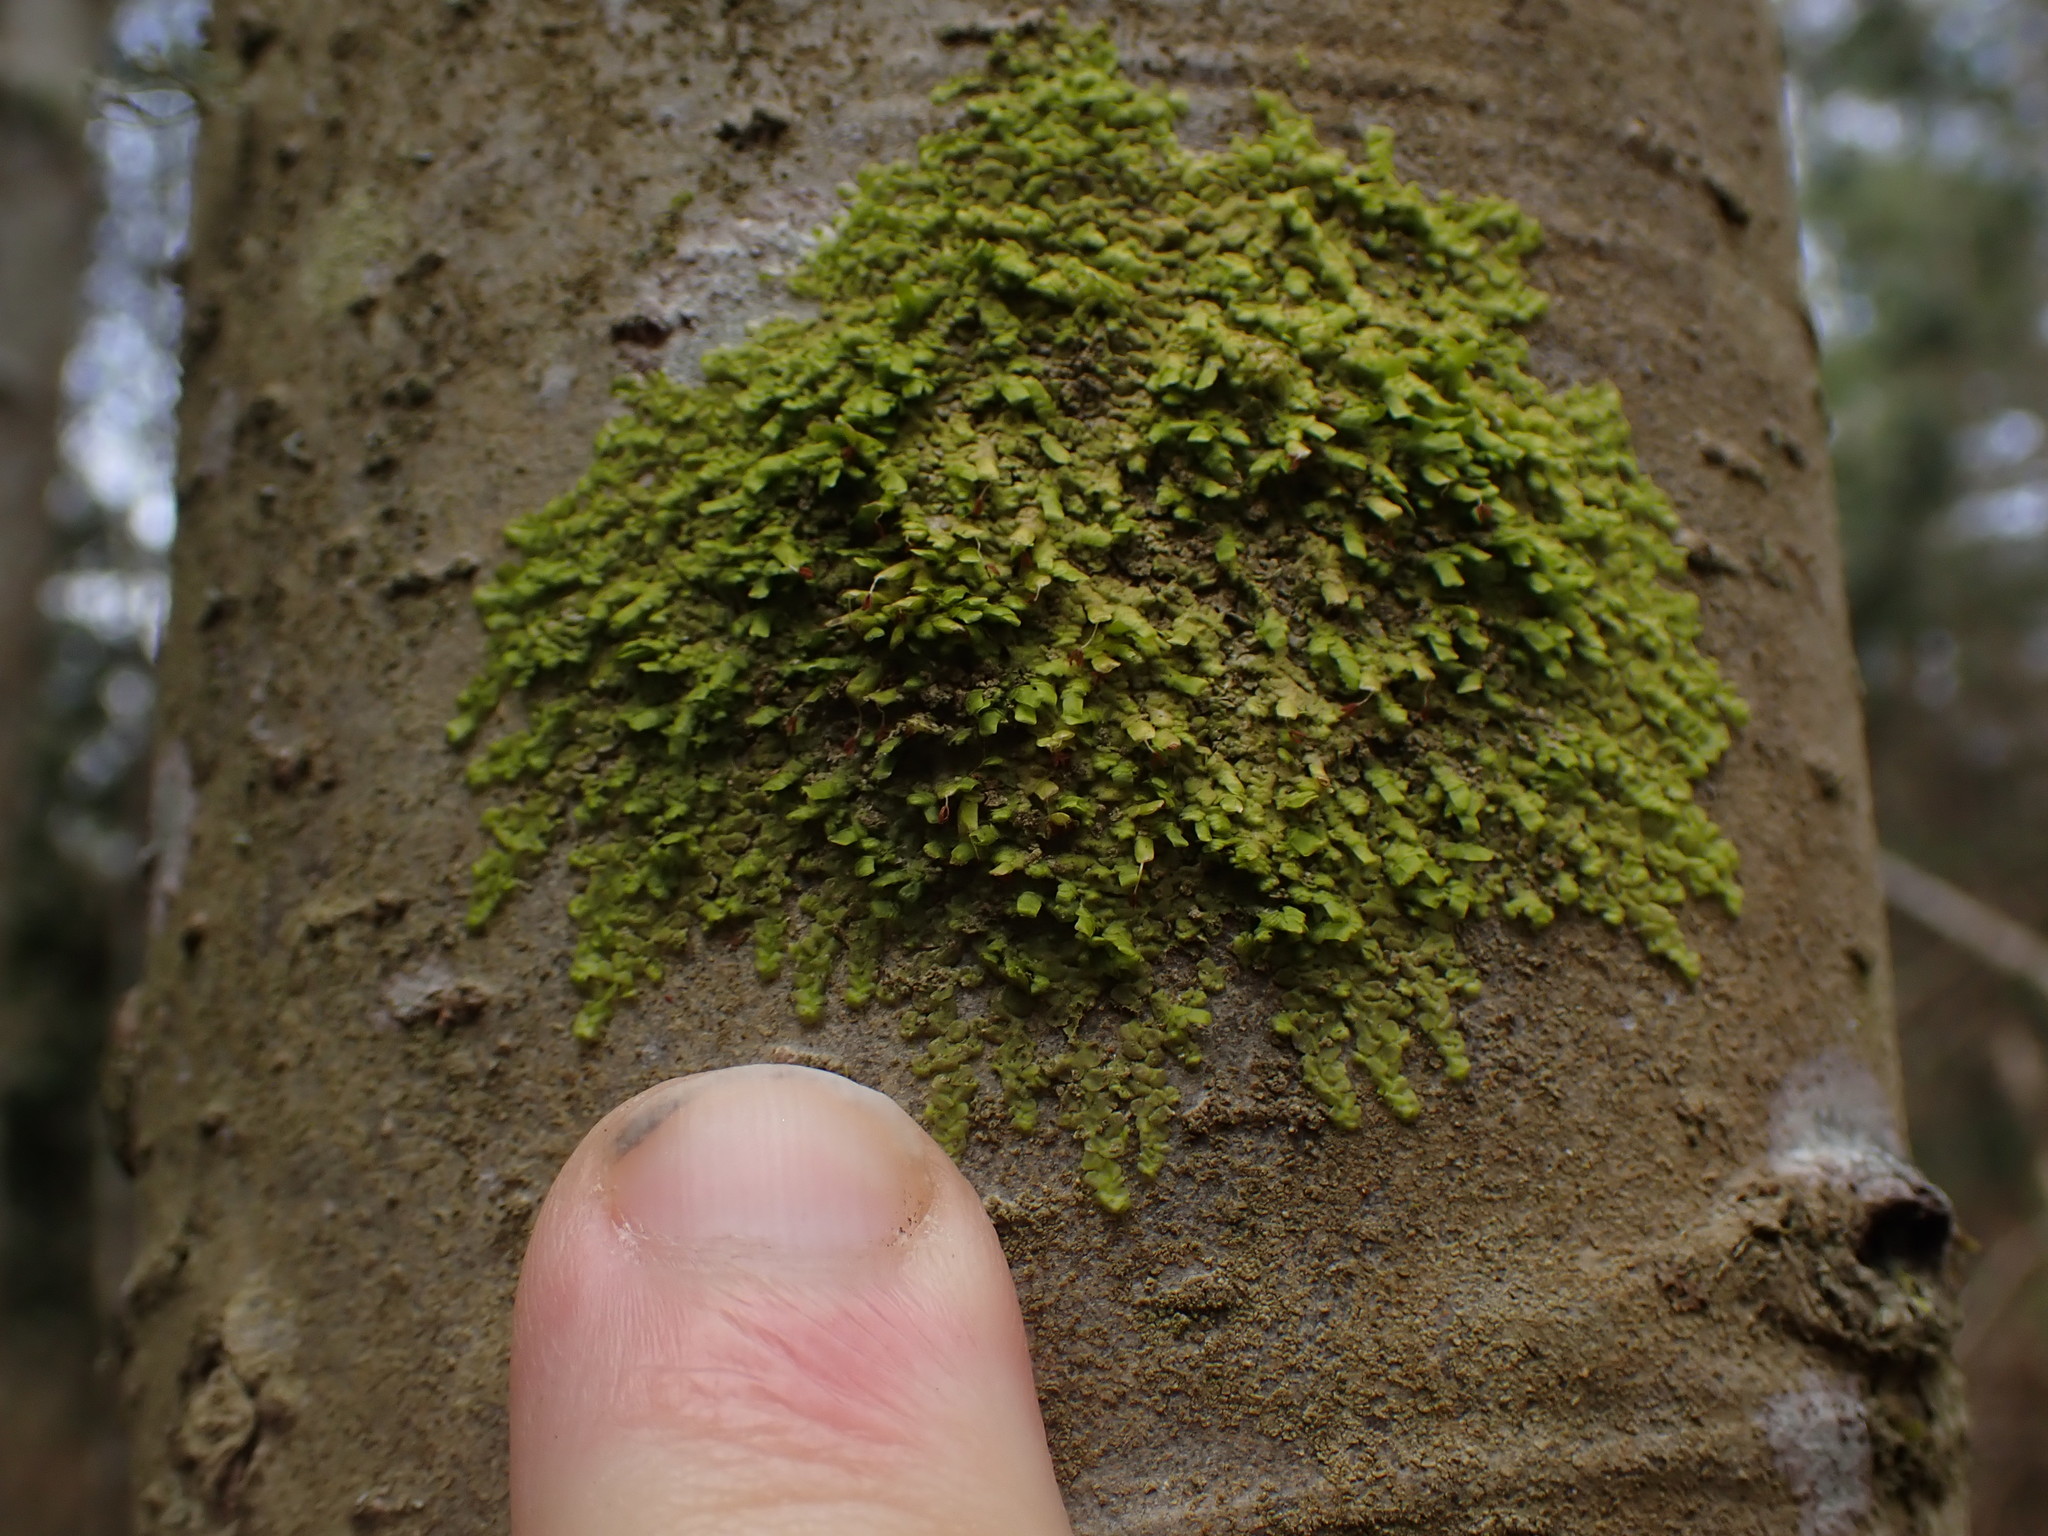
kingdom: Plantae
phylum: Marchantiophyta
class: Jungermanniopsida
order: Porellales
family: Radulaceae
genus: Radula
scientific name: Radula complanata
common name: Flat-leaved scalewort
